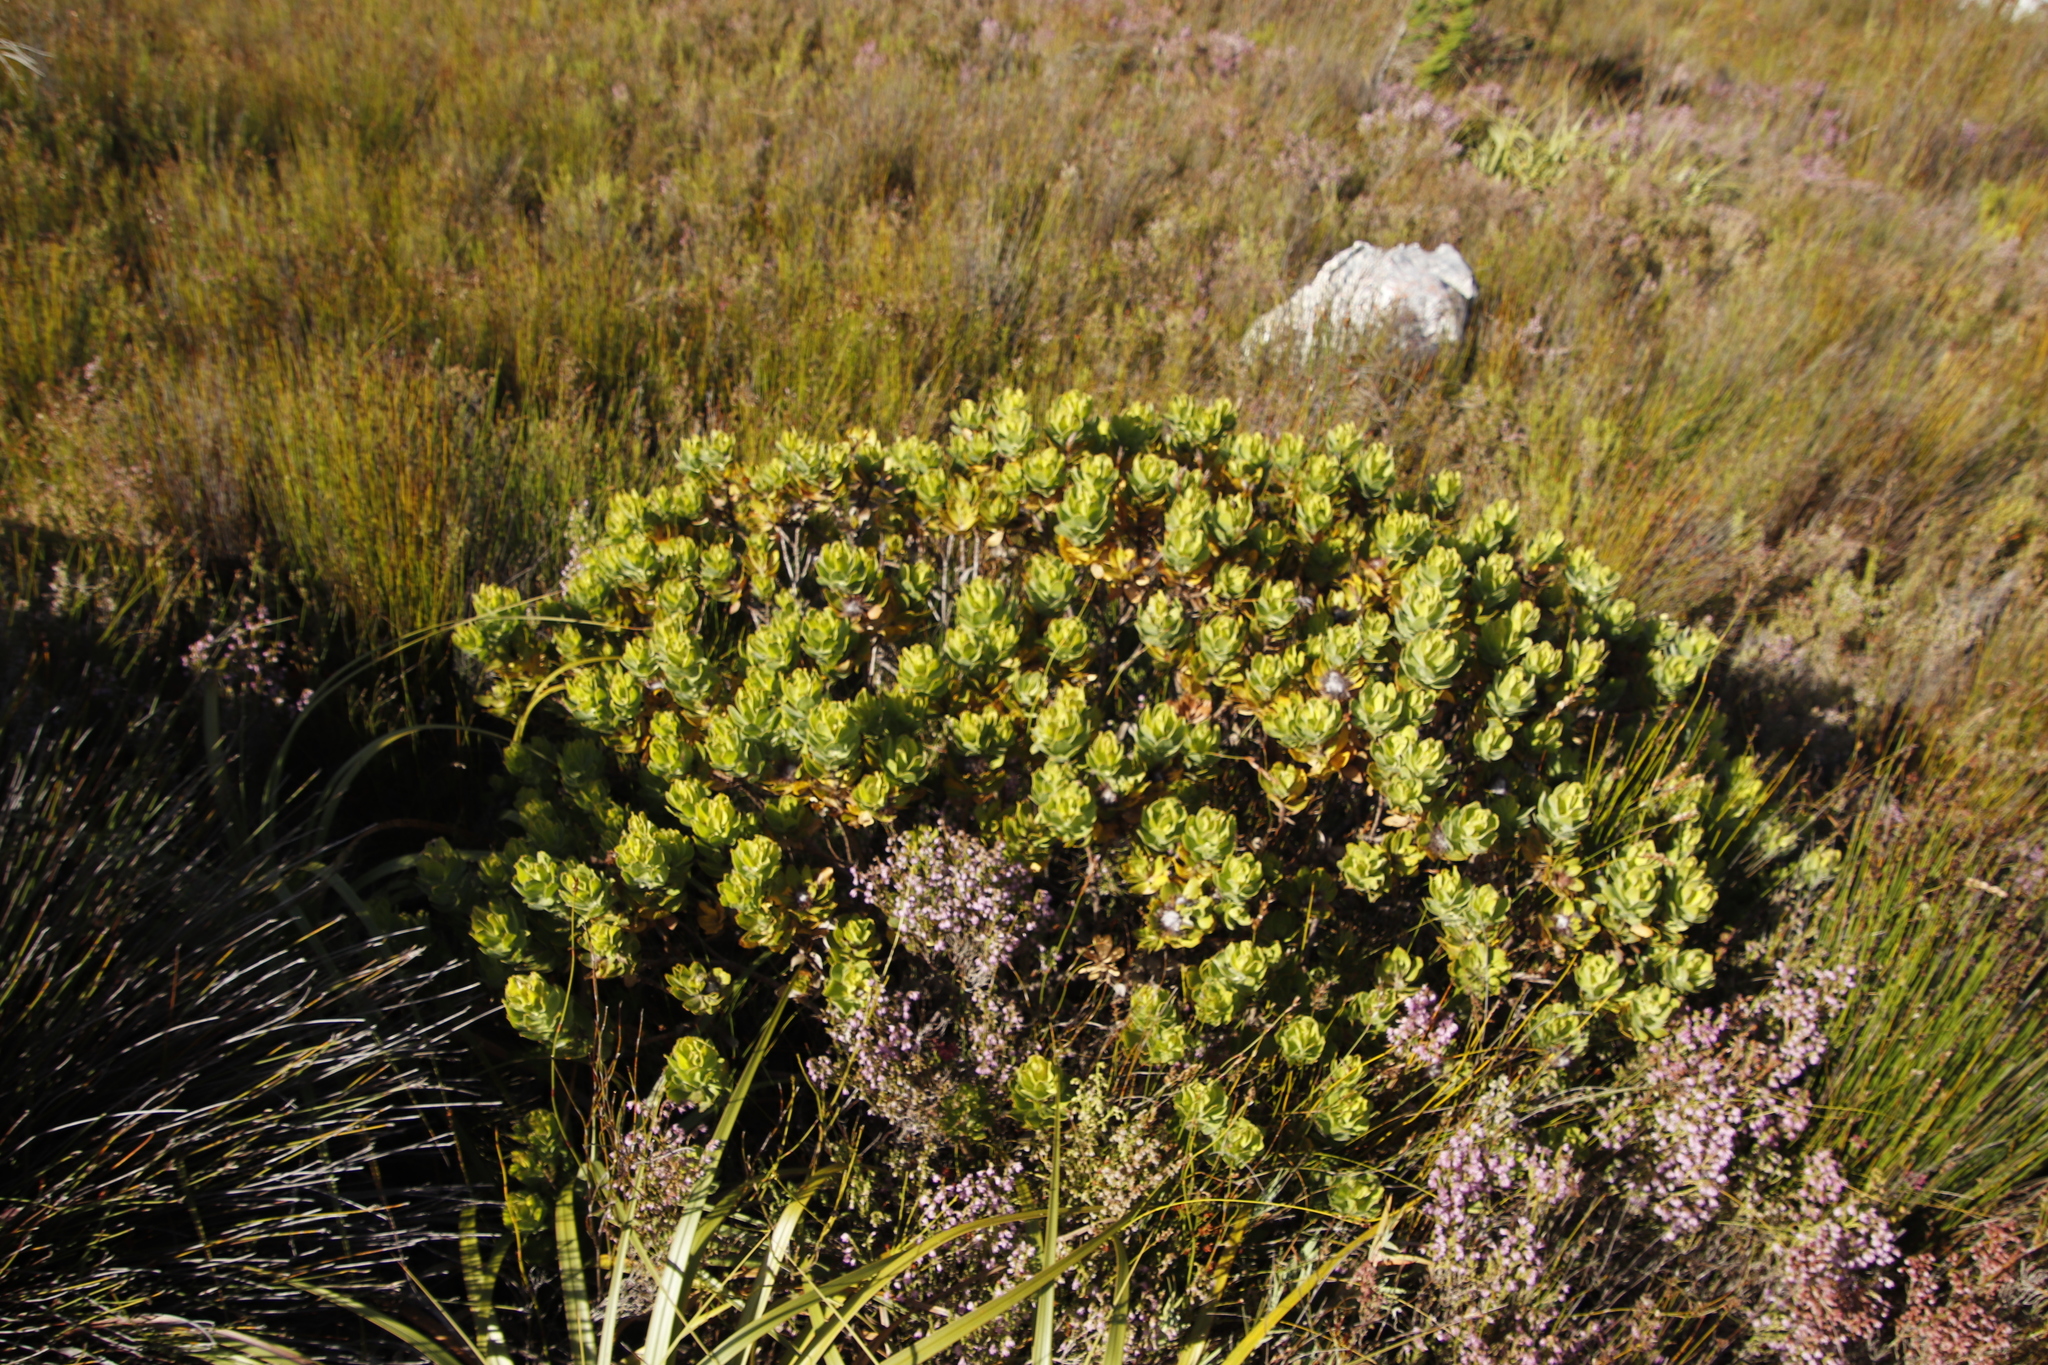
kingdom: Plantae
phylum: Tracheophyta
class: Magnoliopsida
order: Proteales
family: Proteaceae
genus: Leucospermum
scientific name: Leucospermum oleifolium
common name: Matches
